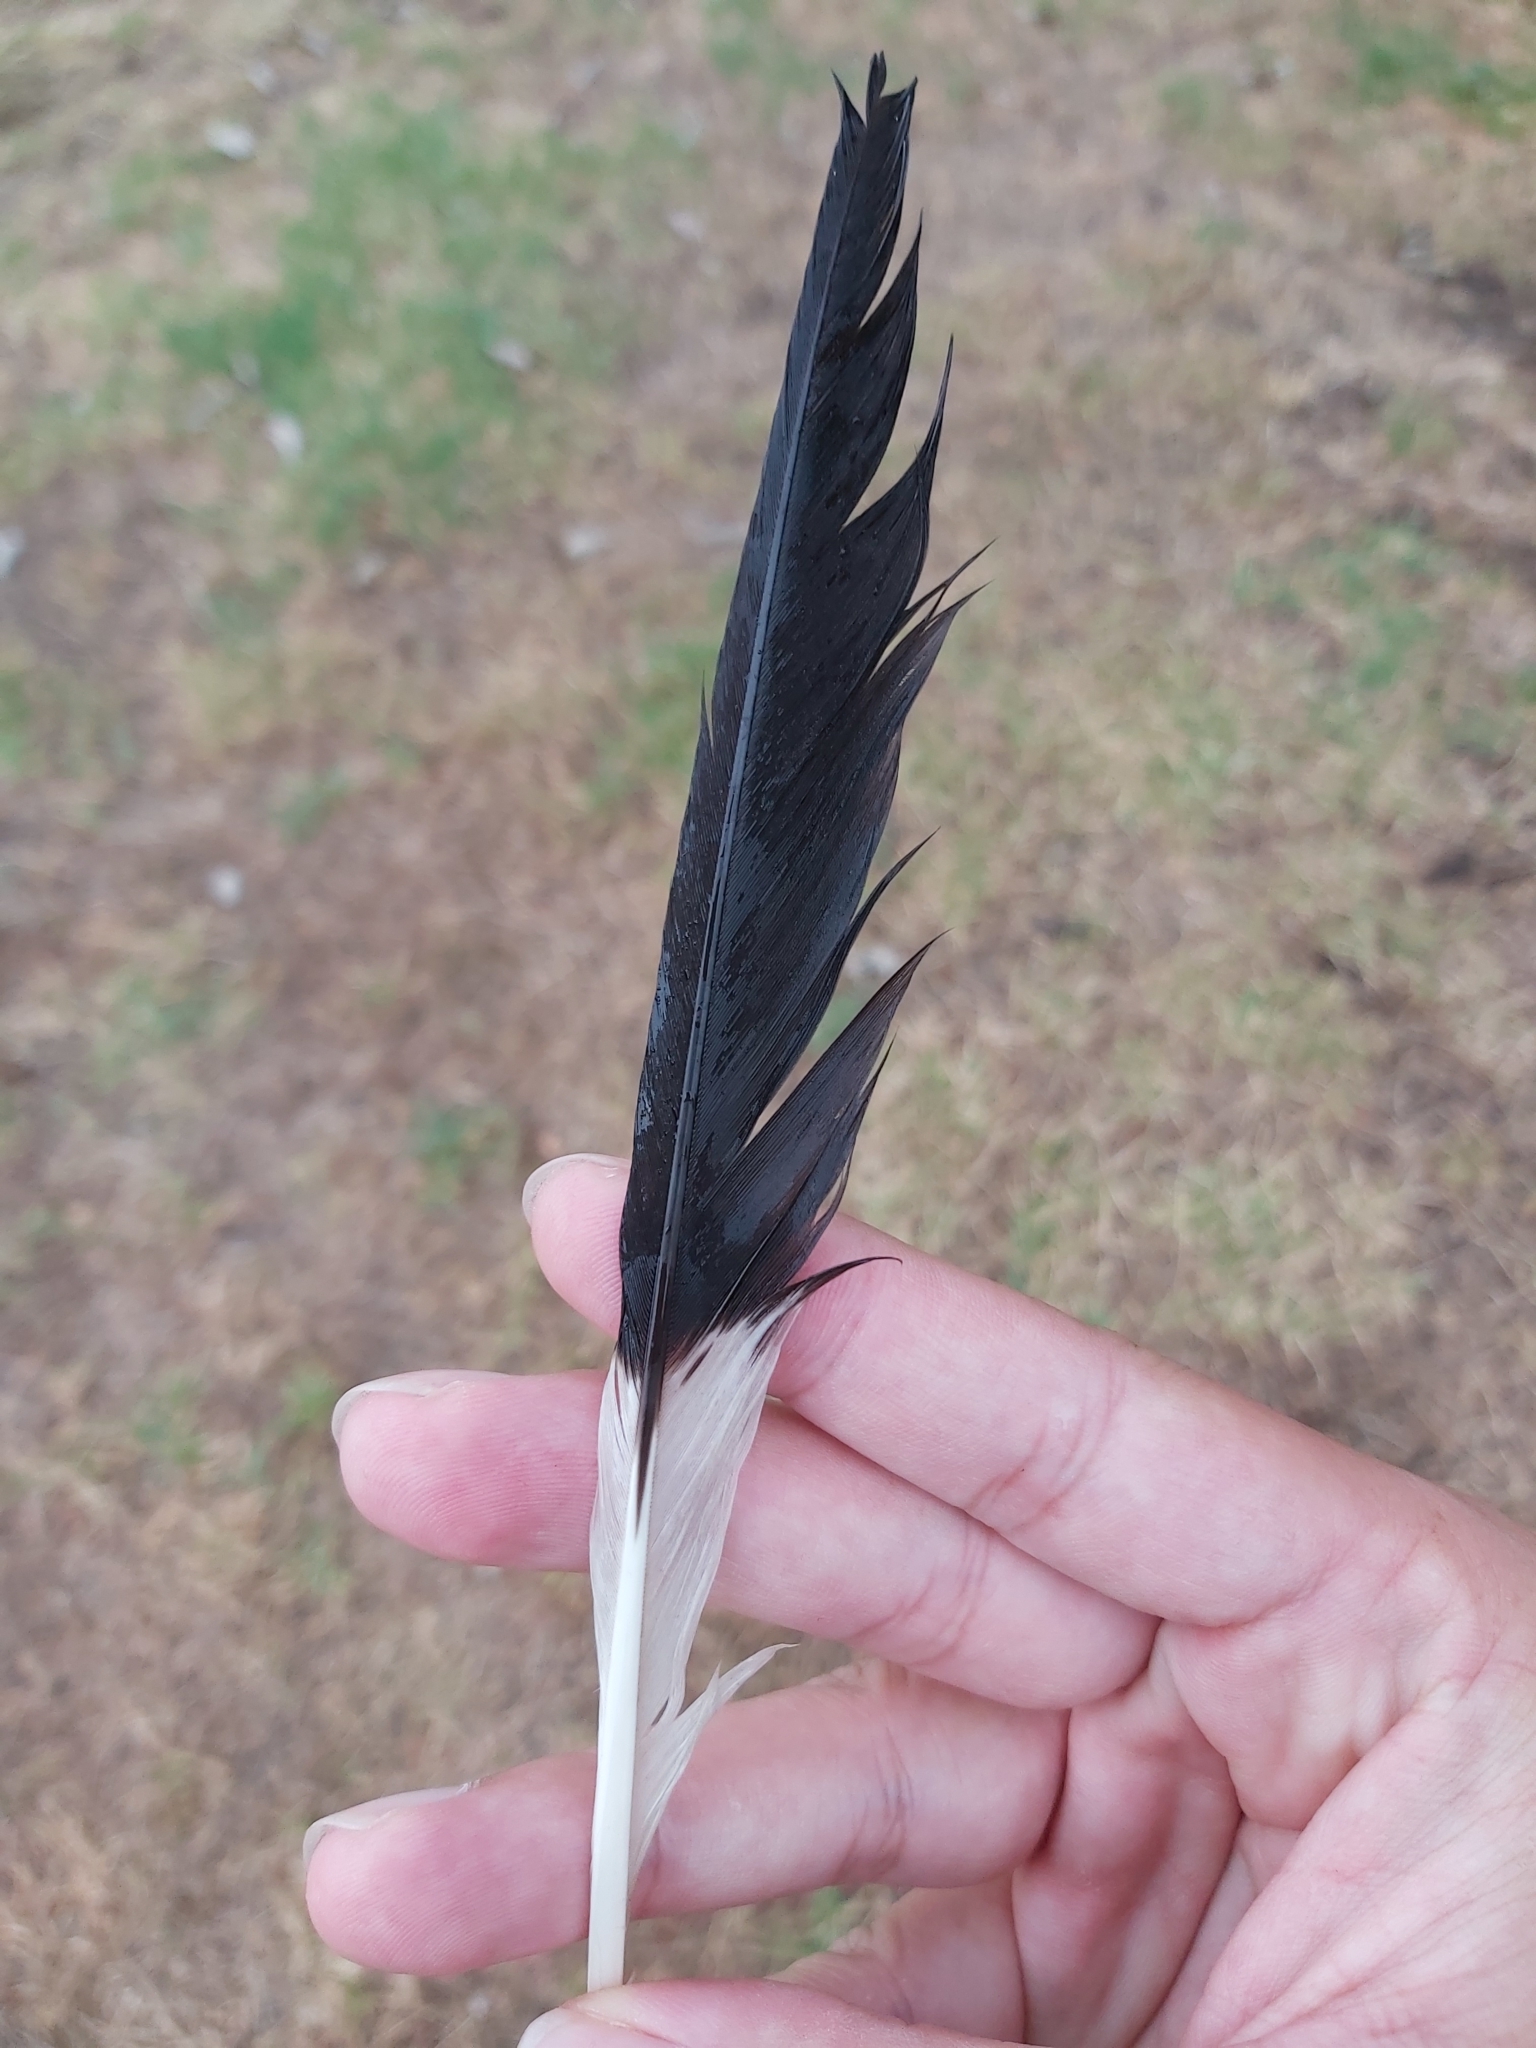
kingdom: Animalia
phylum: Chordata
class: Aves
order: Passeriformes
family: Cracticidae
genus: Strepera
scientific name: Strepera graculina
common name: Pied currawong
